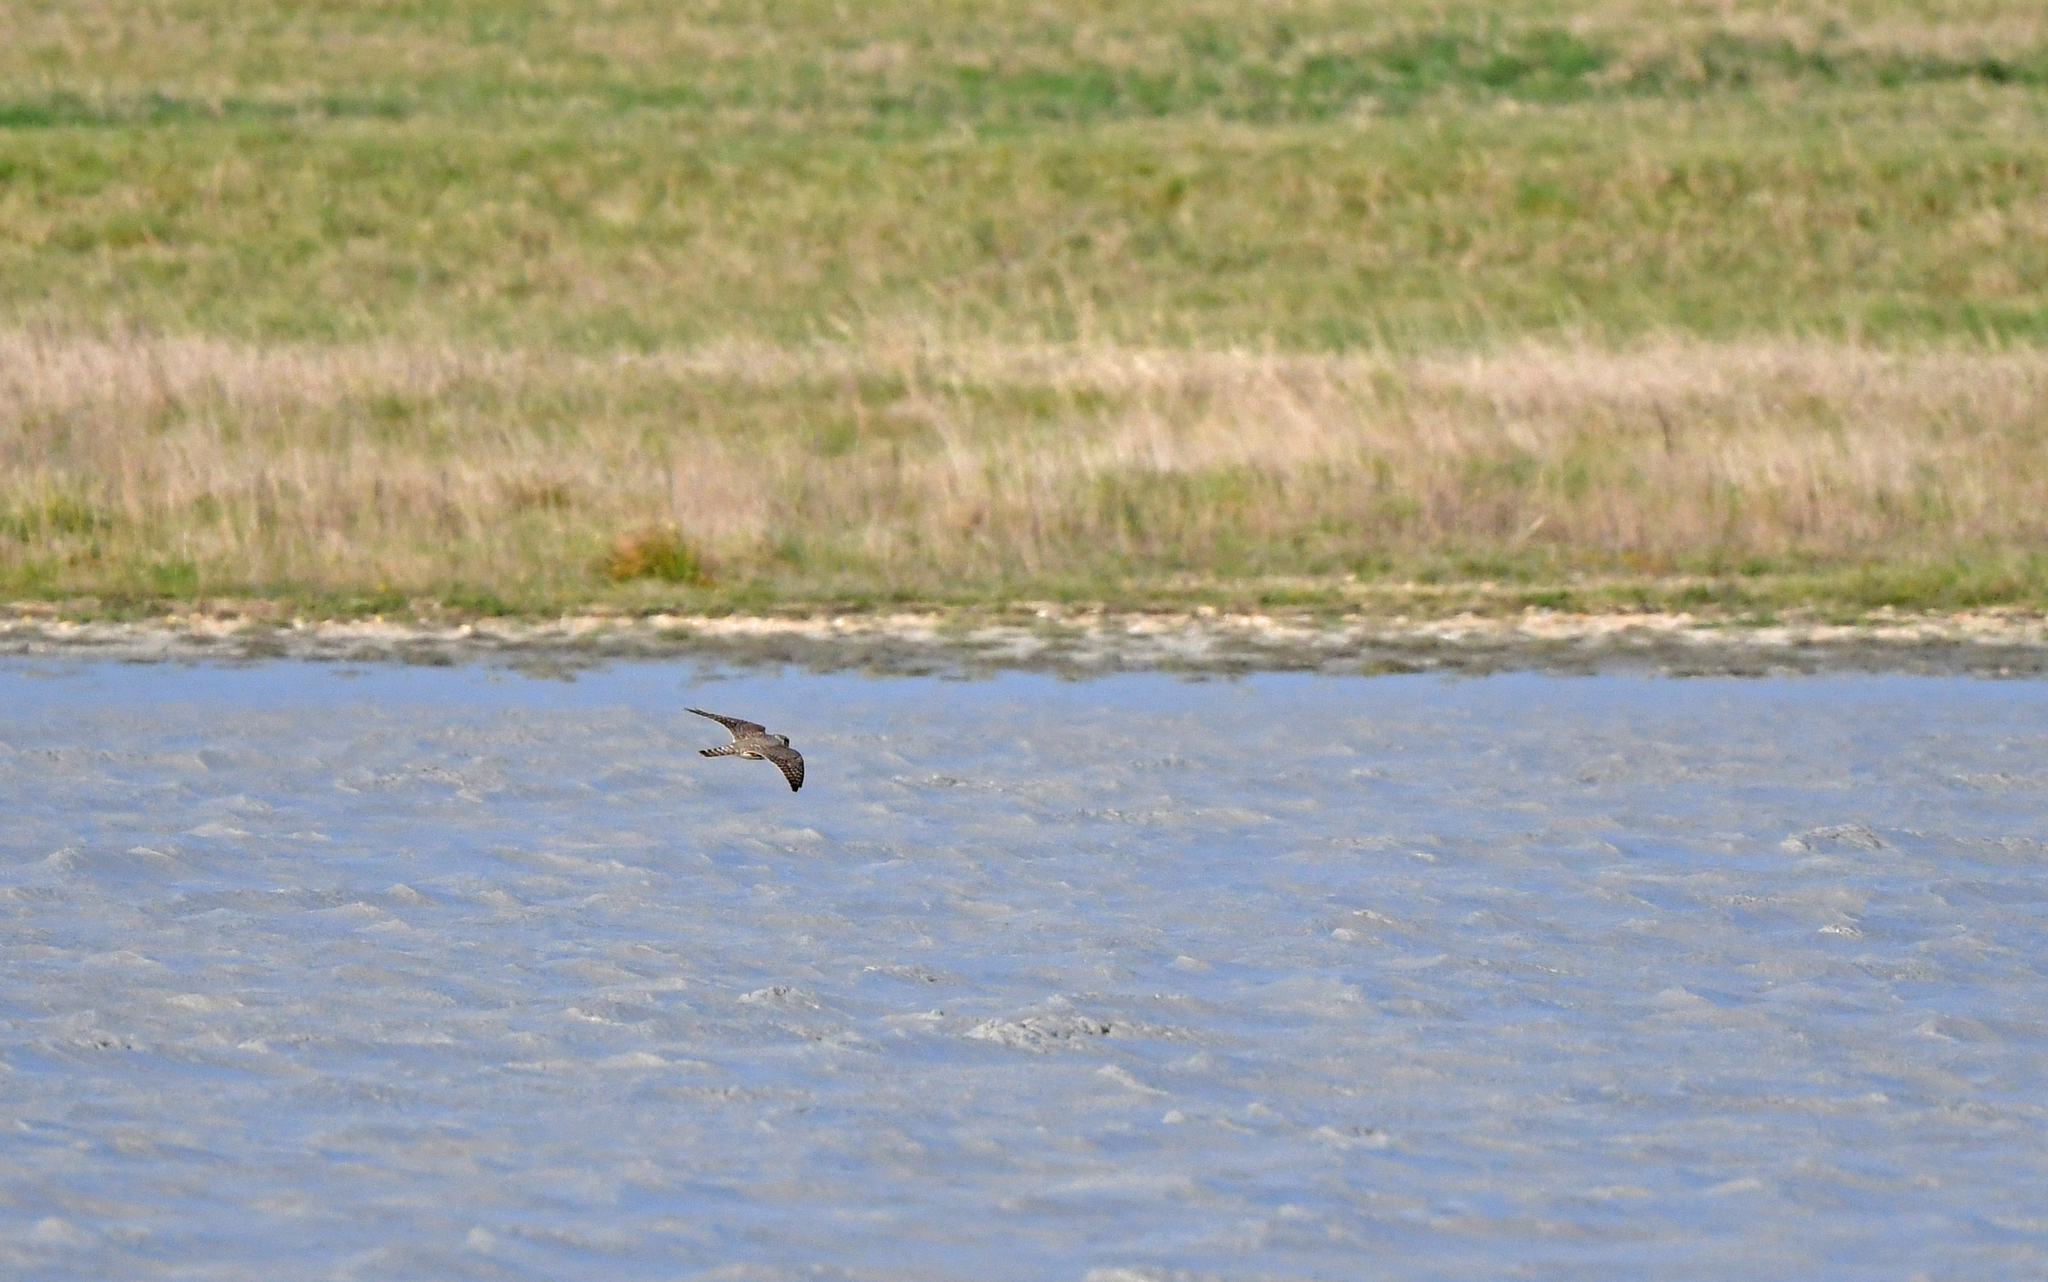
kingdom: Animalia
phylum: Chordata
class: Aves
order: Falconiformes
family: Falconidae
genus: Falco
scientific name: Falco columbarius
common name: Merlin
